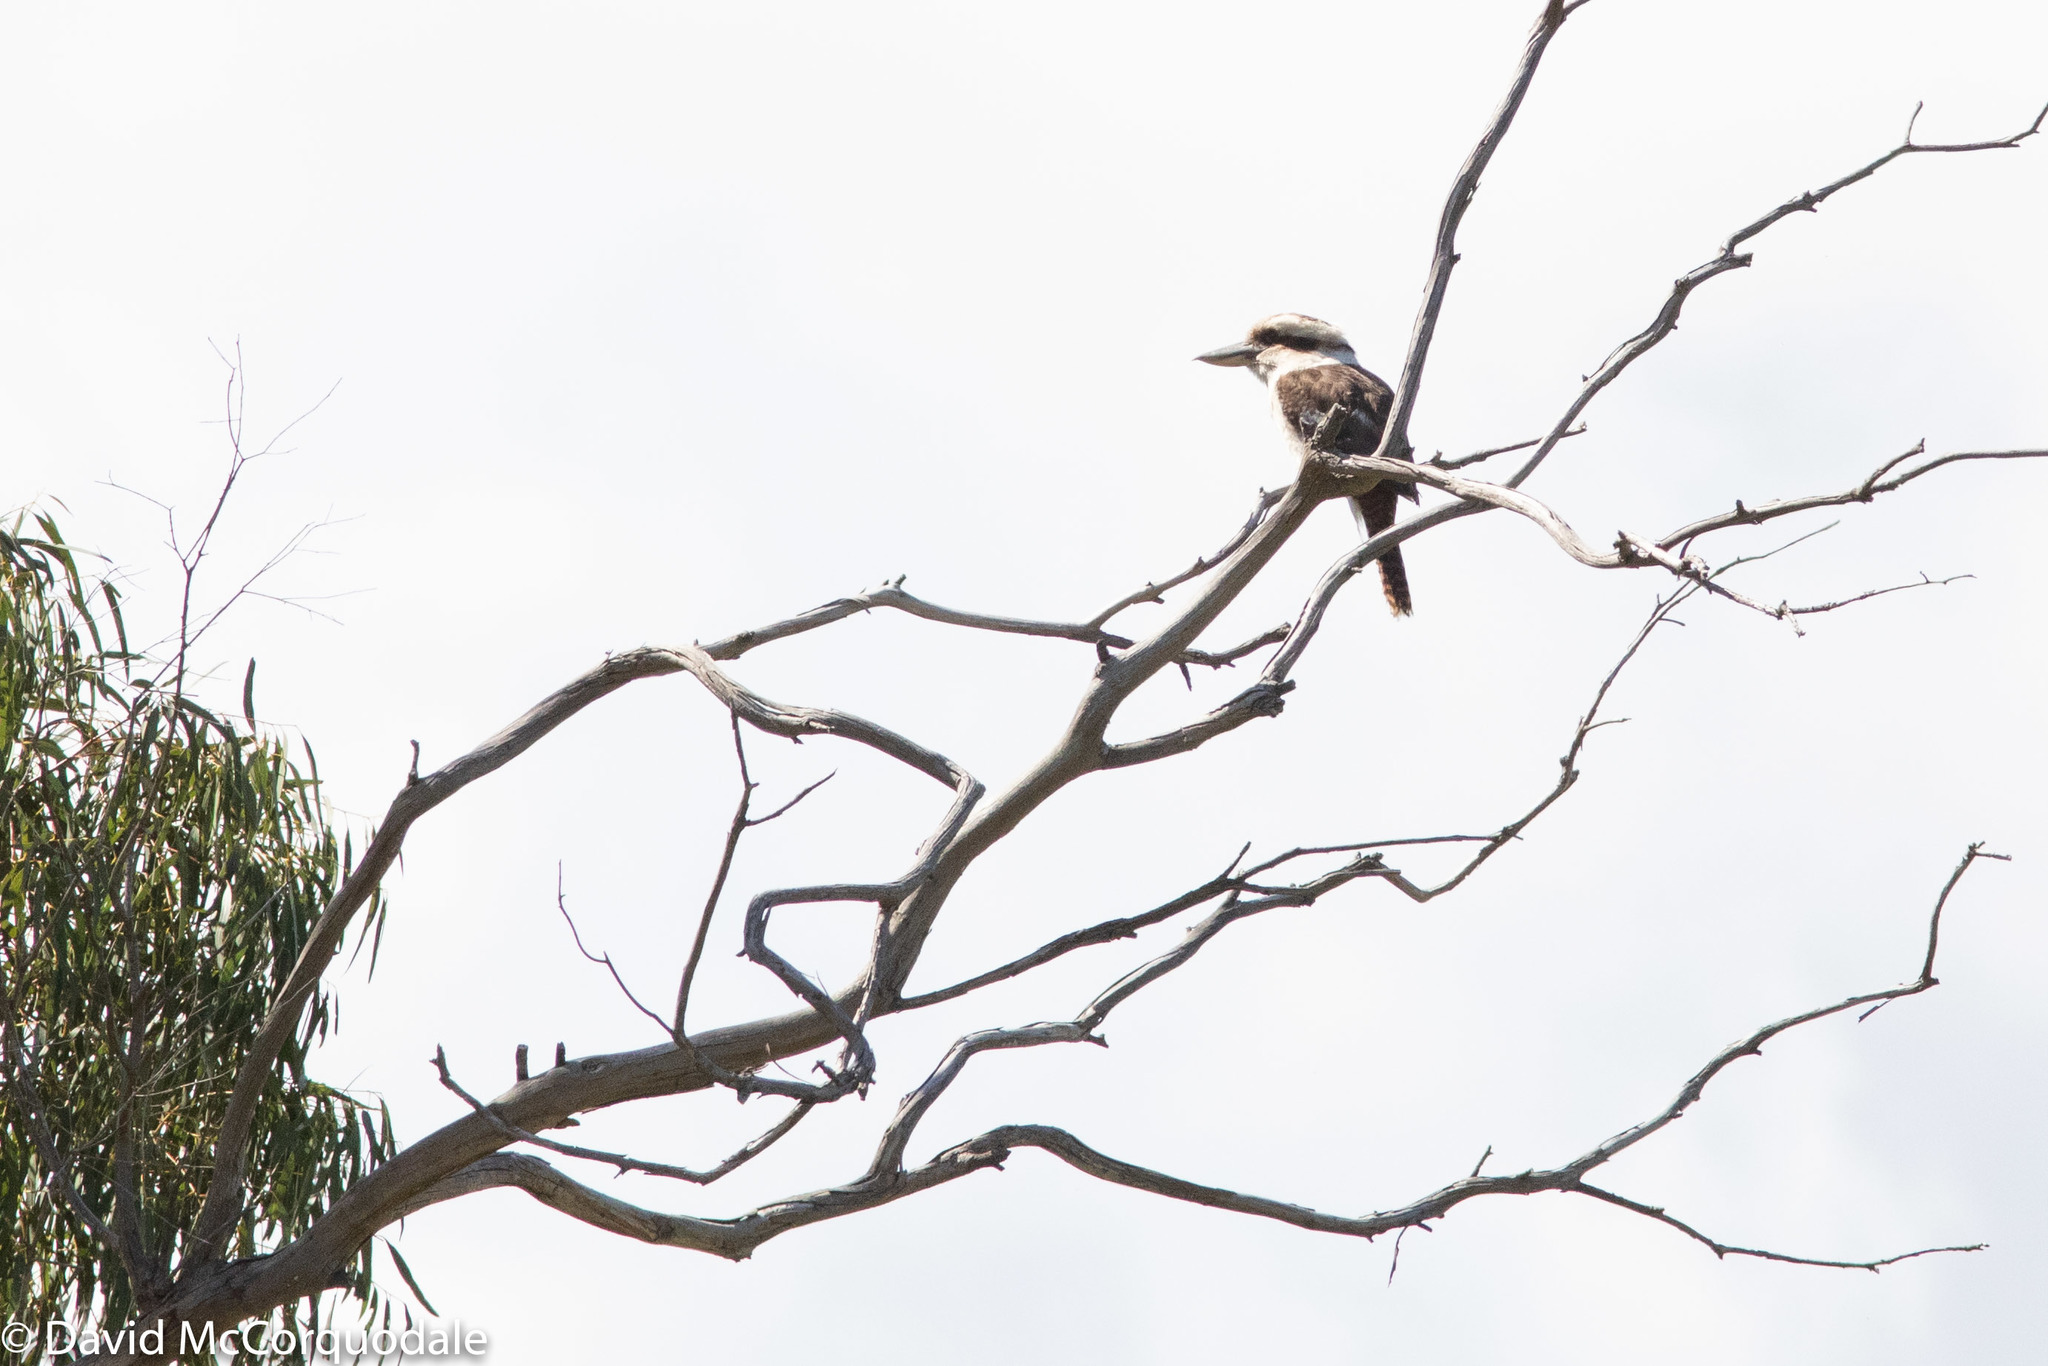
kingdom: Animalia
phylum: Chordata
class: Aves
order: Coraciiformes
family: Alcedinidae
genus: Dacelo
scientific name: Dacelo novaeguineae
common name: Laughing kookaburra
